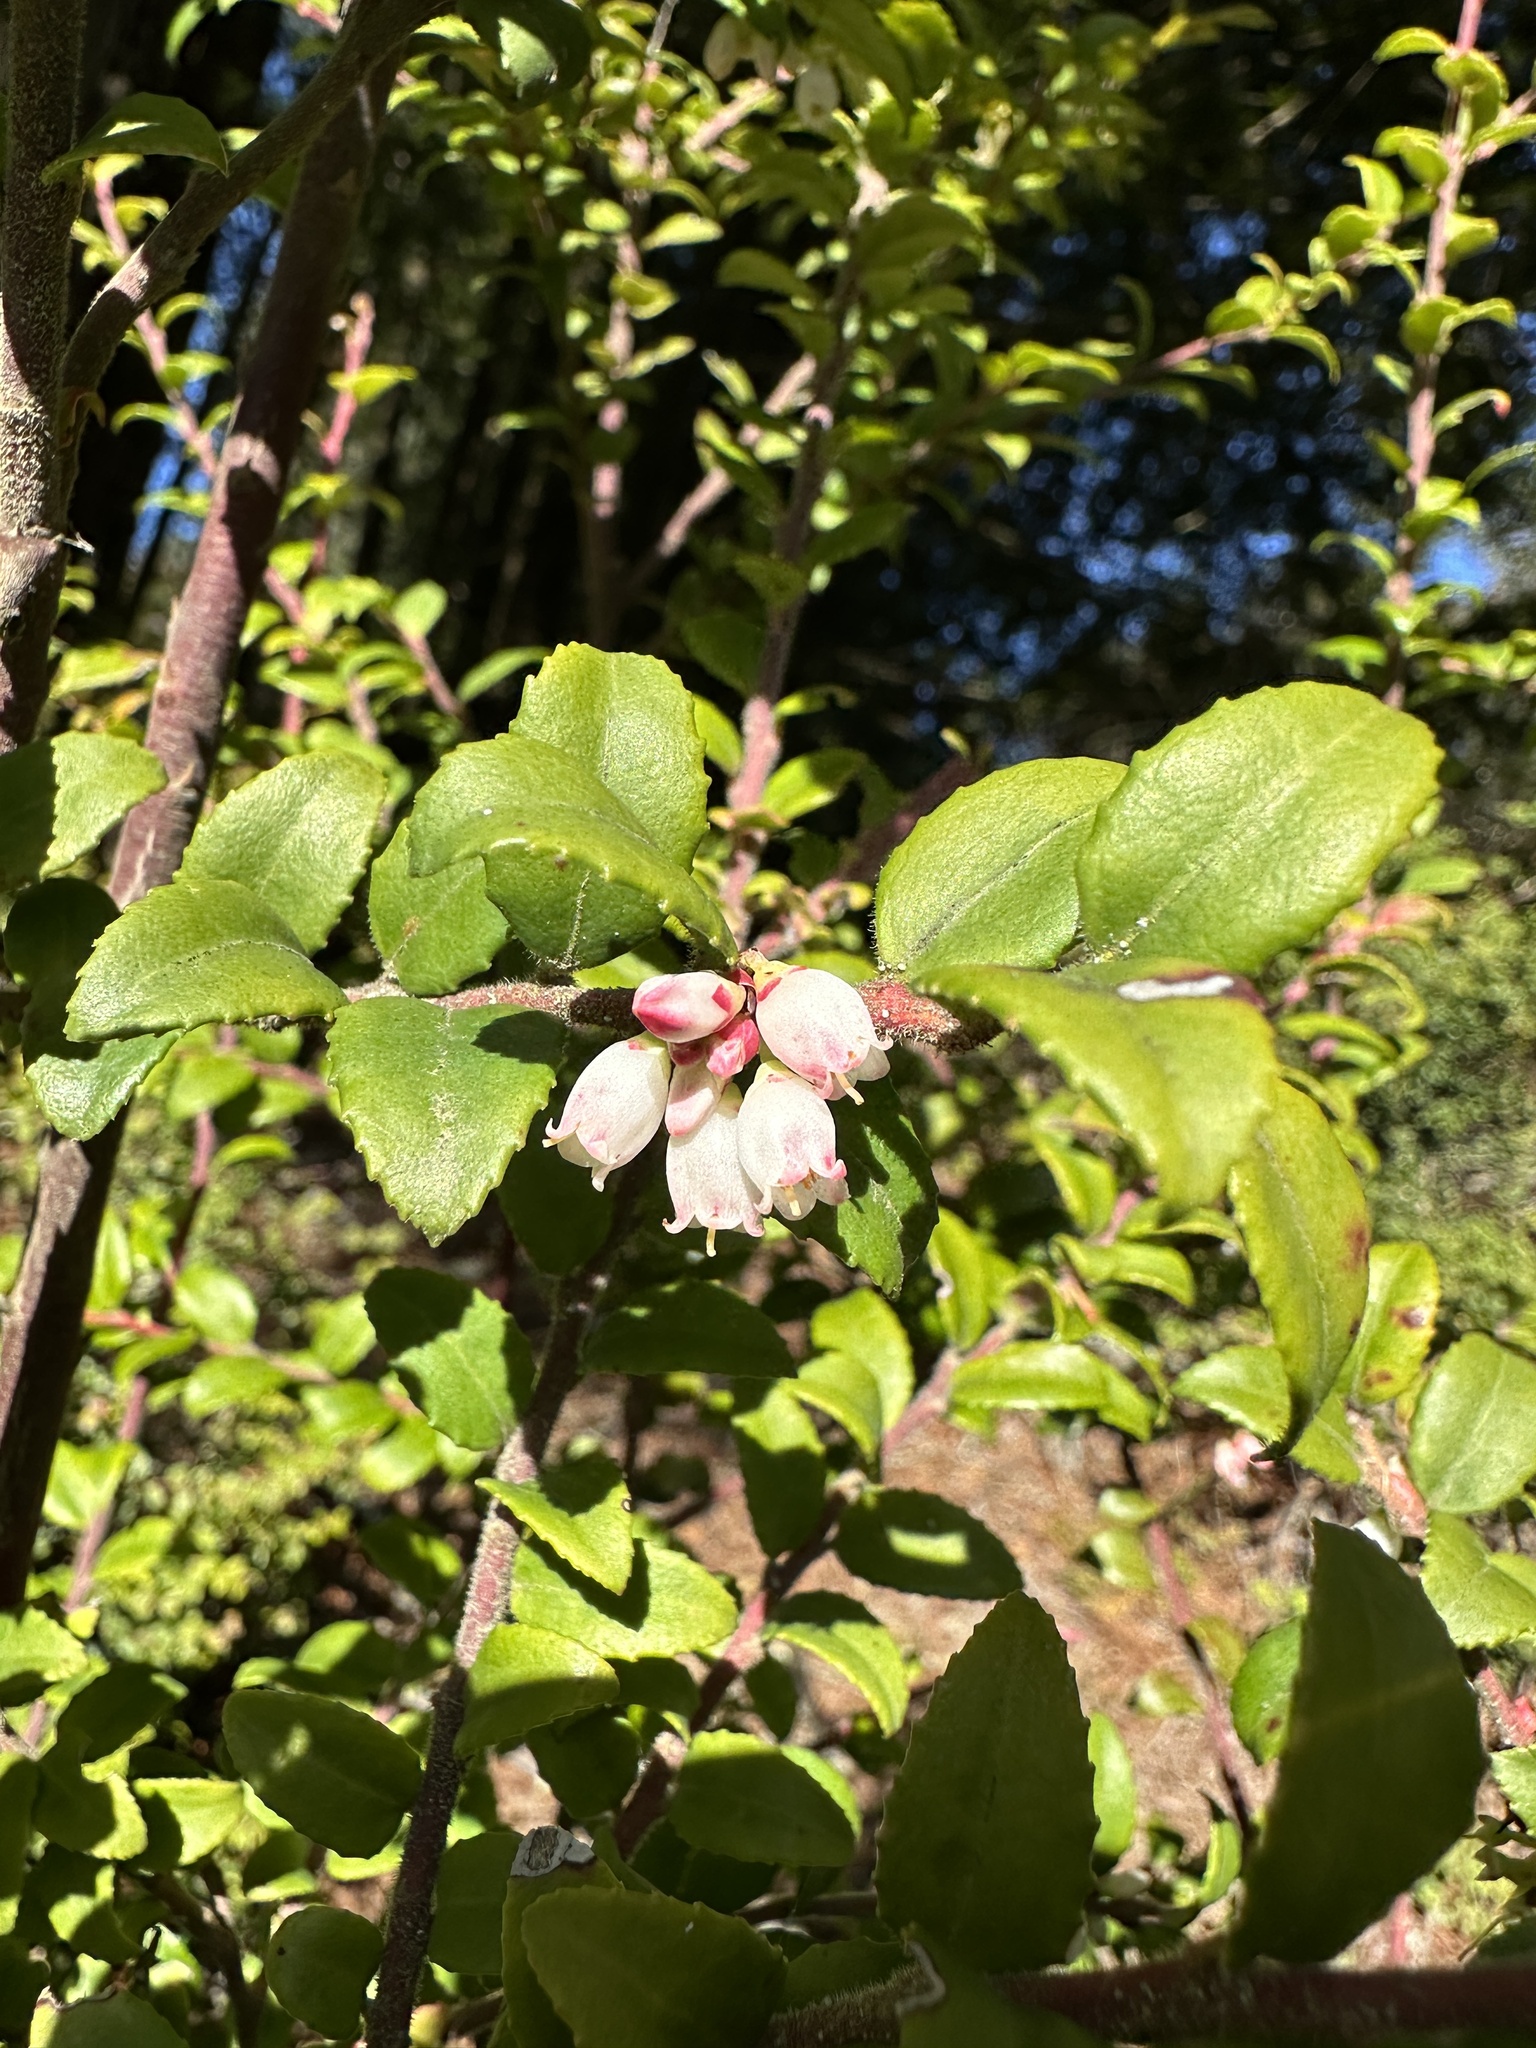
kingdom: Plantae
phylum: Tracheophyta
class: Magnoliopsida
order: Ericales
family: Ericaceae
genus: Vaccinium
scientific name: Vaccinium ovatum
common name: California-huckleberry
